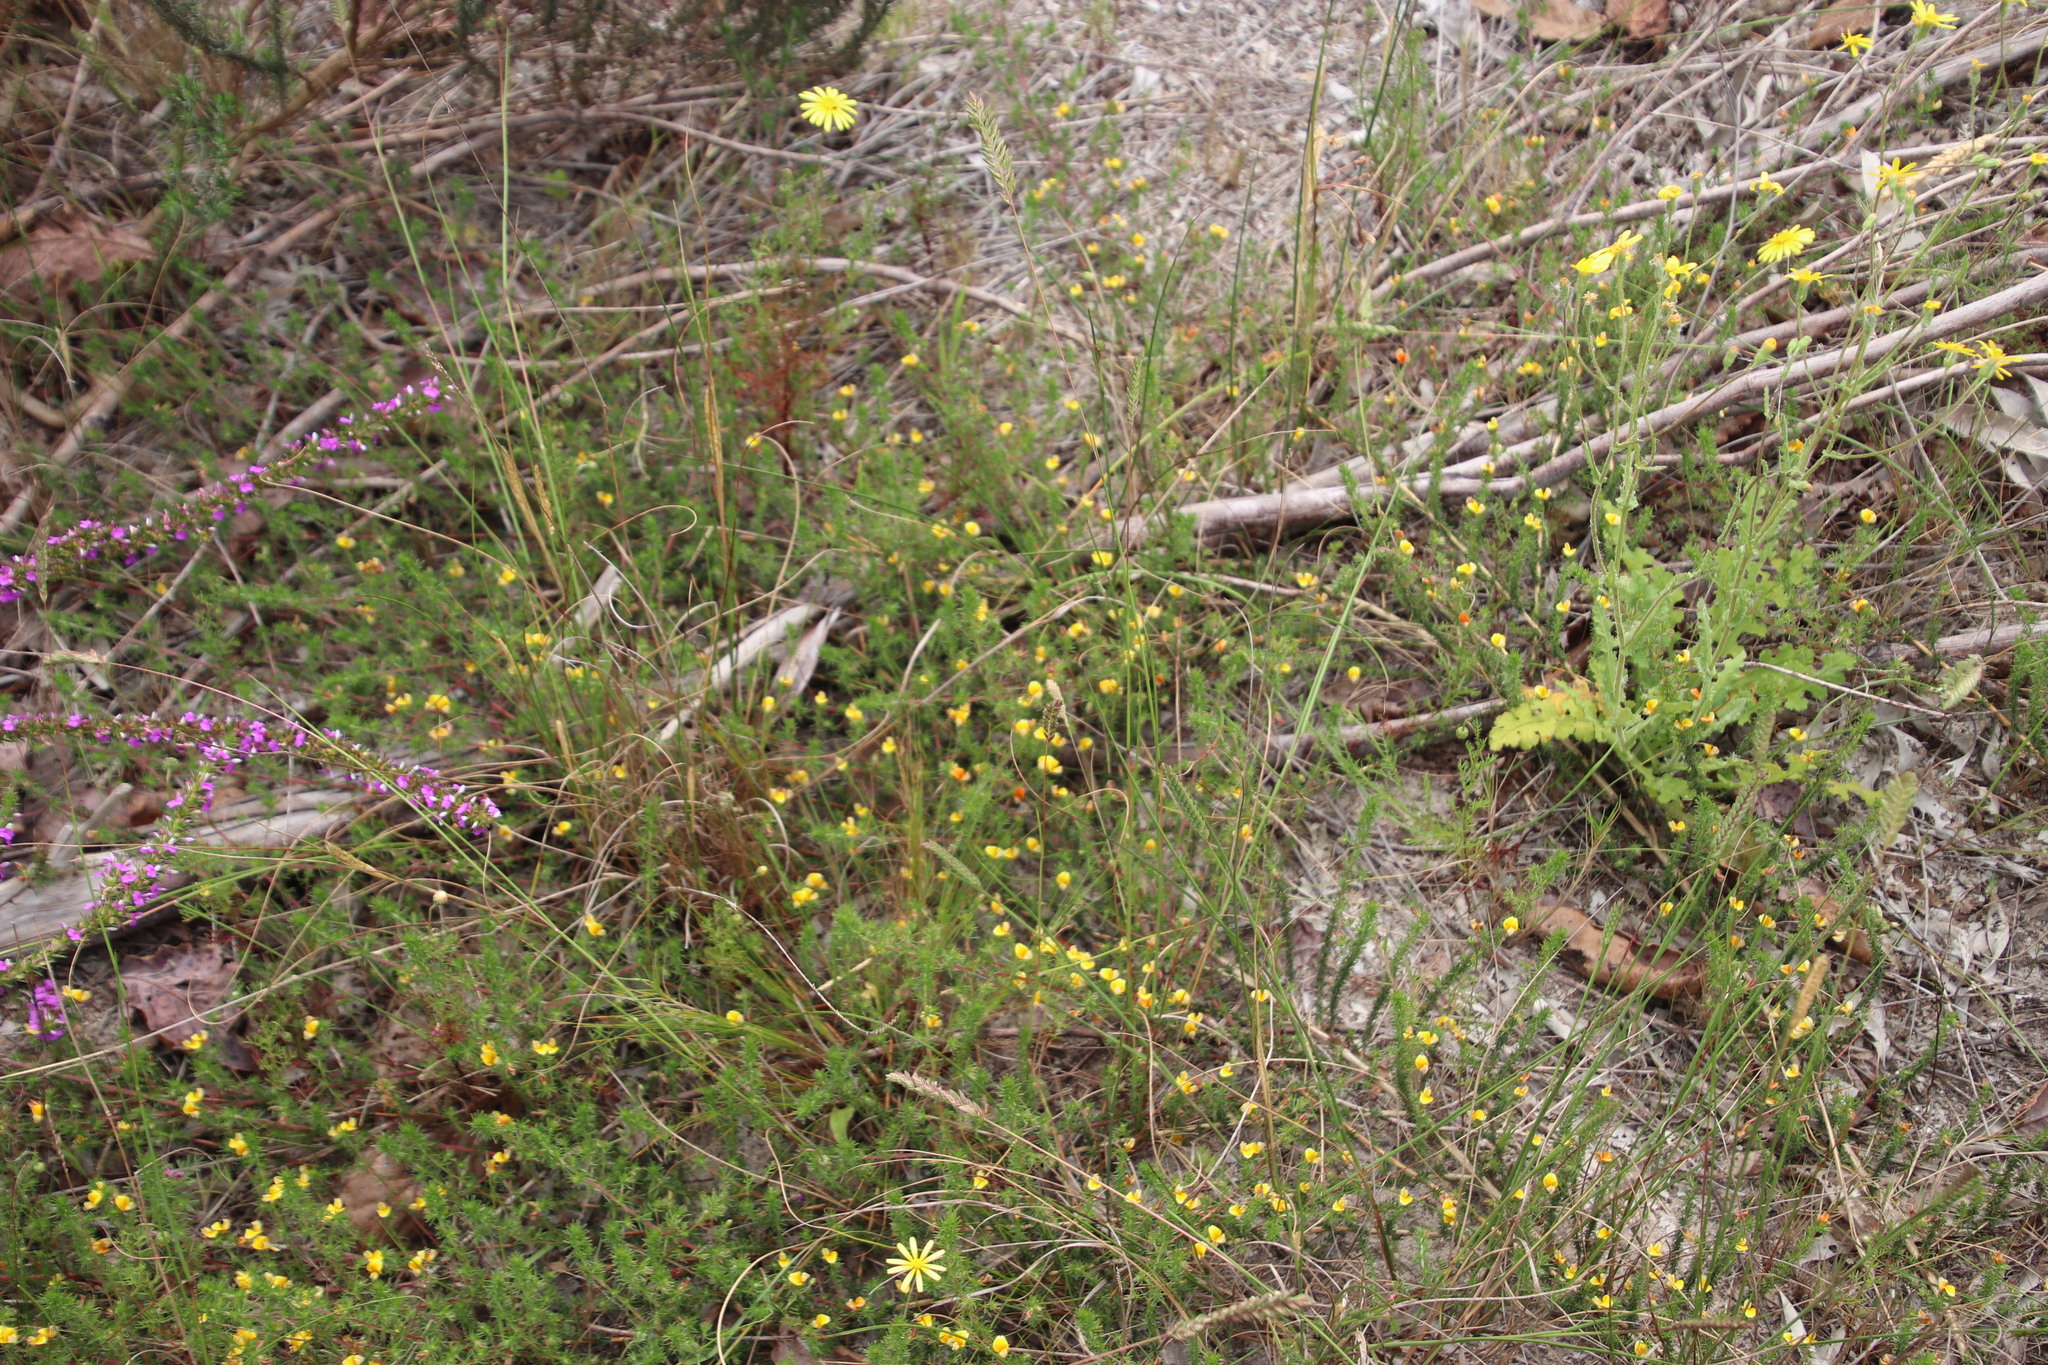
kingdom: Plantae
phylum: Tracheophyta
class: Magnoliopsida
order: Fabales
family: Fabaceae
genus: Aspalathus
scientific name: Aspalathus retroflexa
